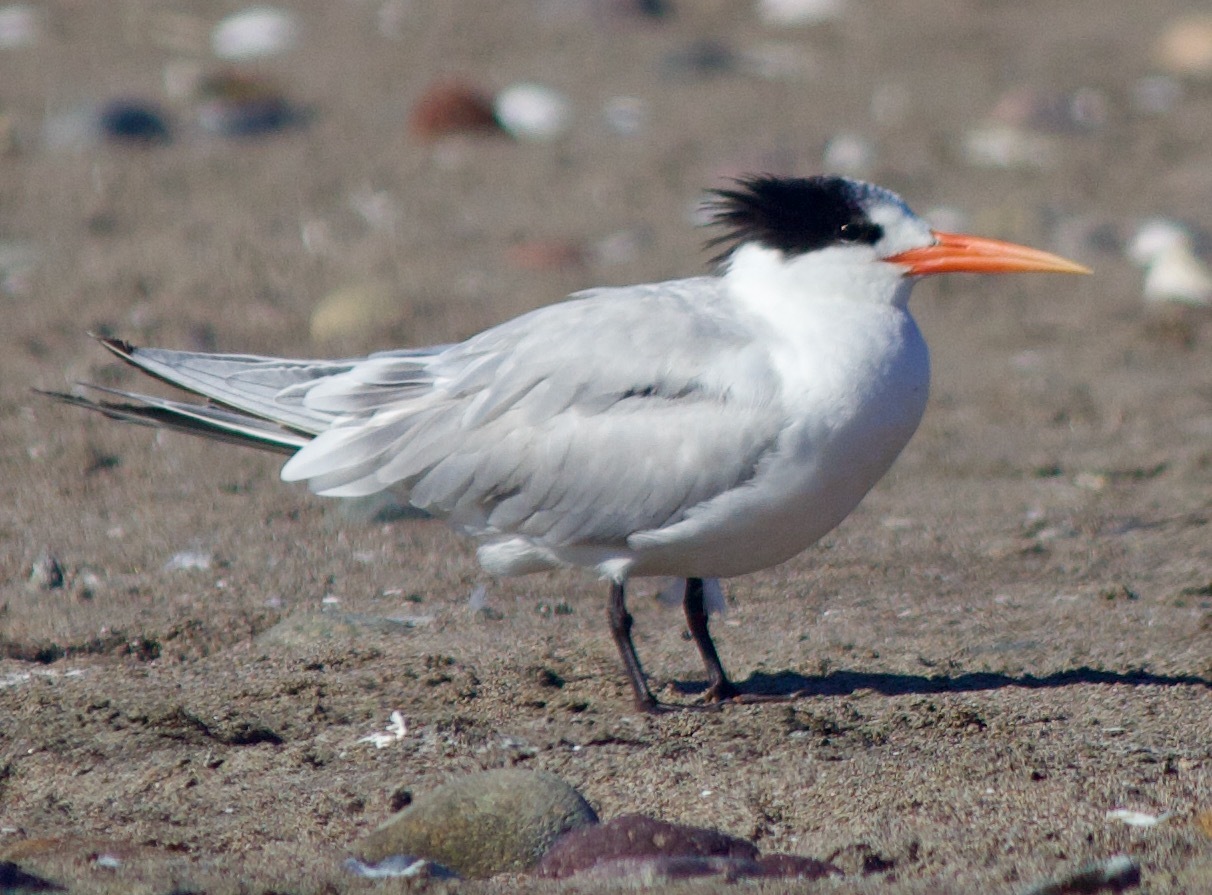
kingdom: Animalia
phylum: Chordata
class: Aves
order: Charadriiformes
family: Laridae
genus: Thalasseus
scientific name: Thalasseus elegans
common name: Elegant tern
